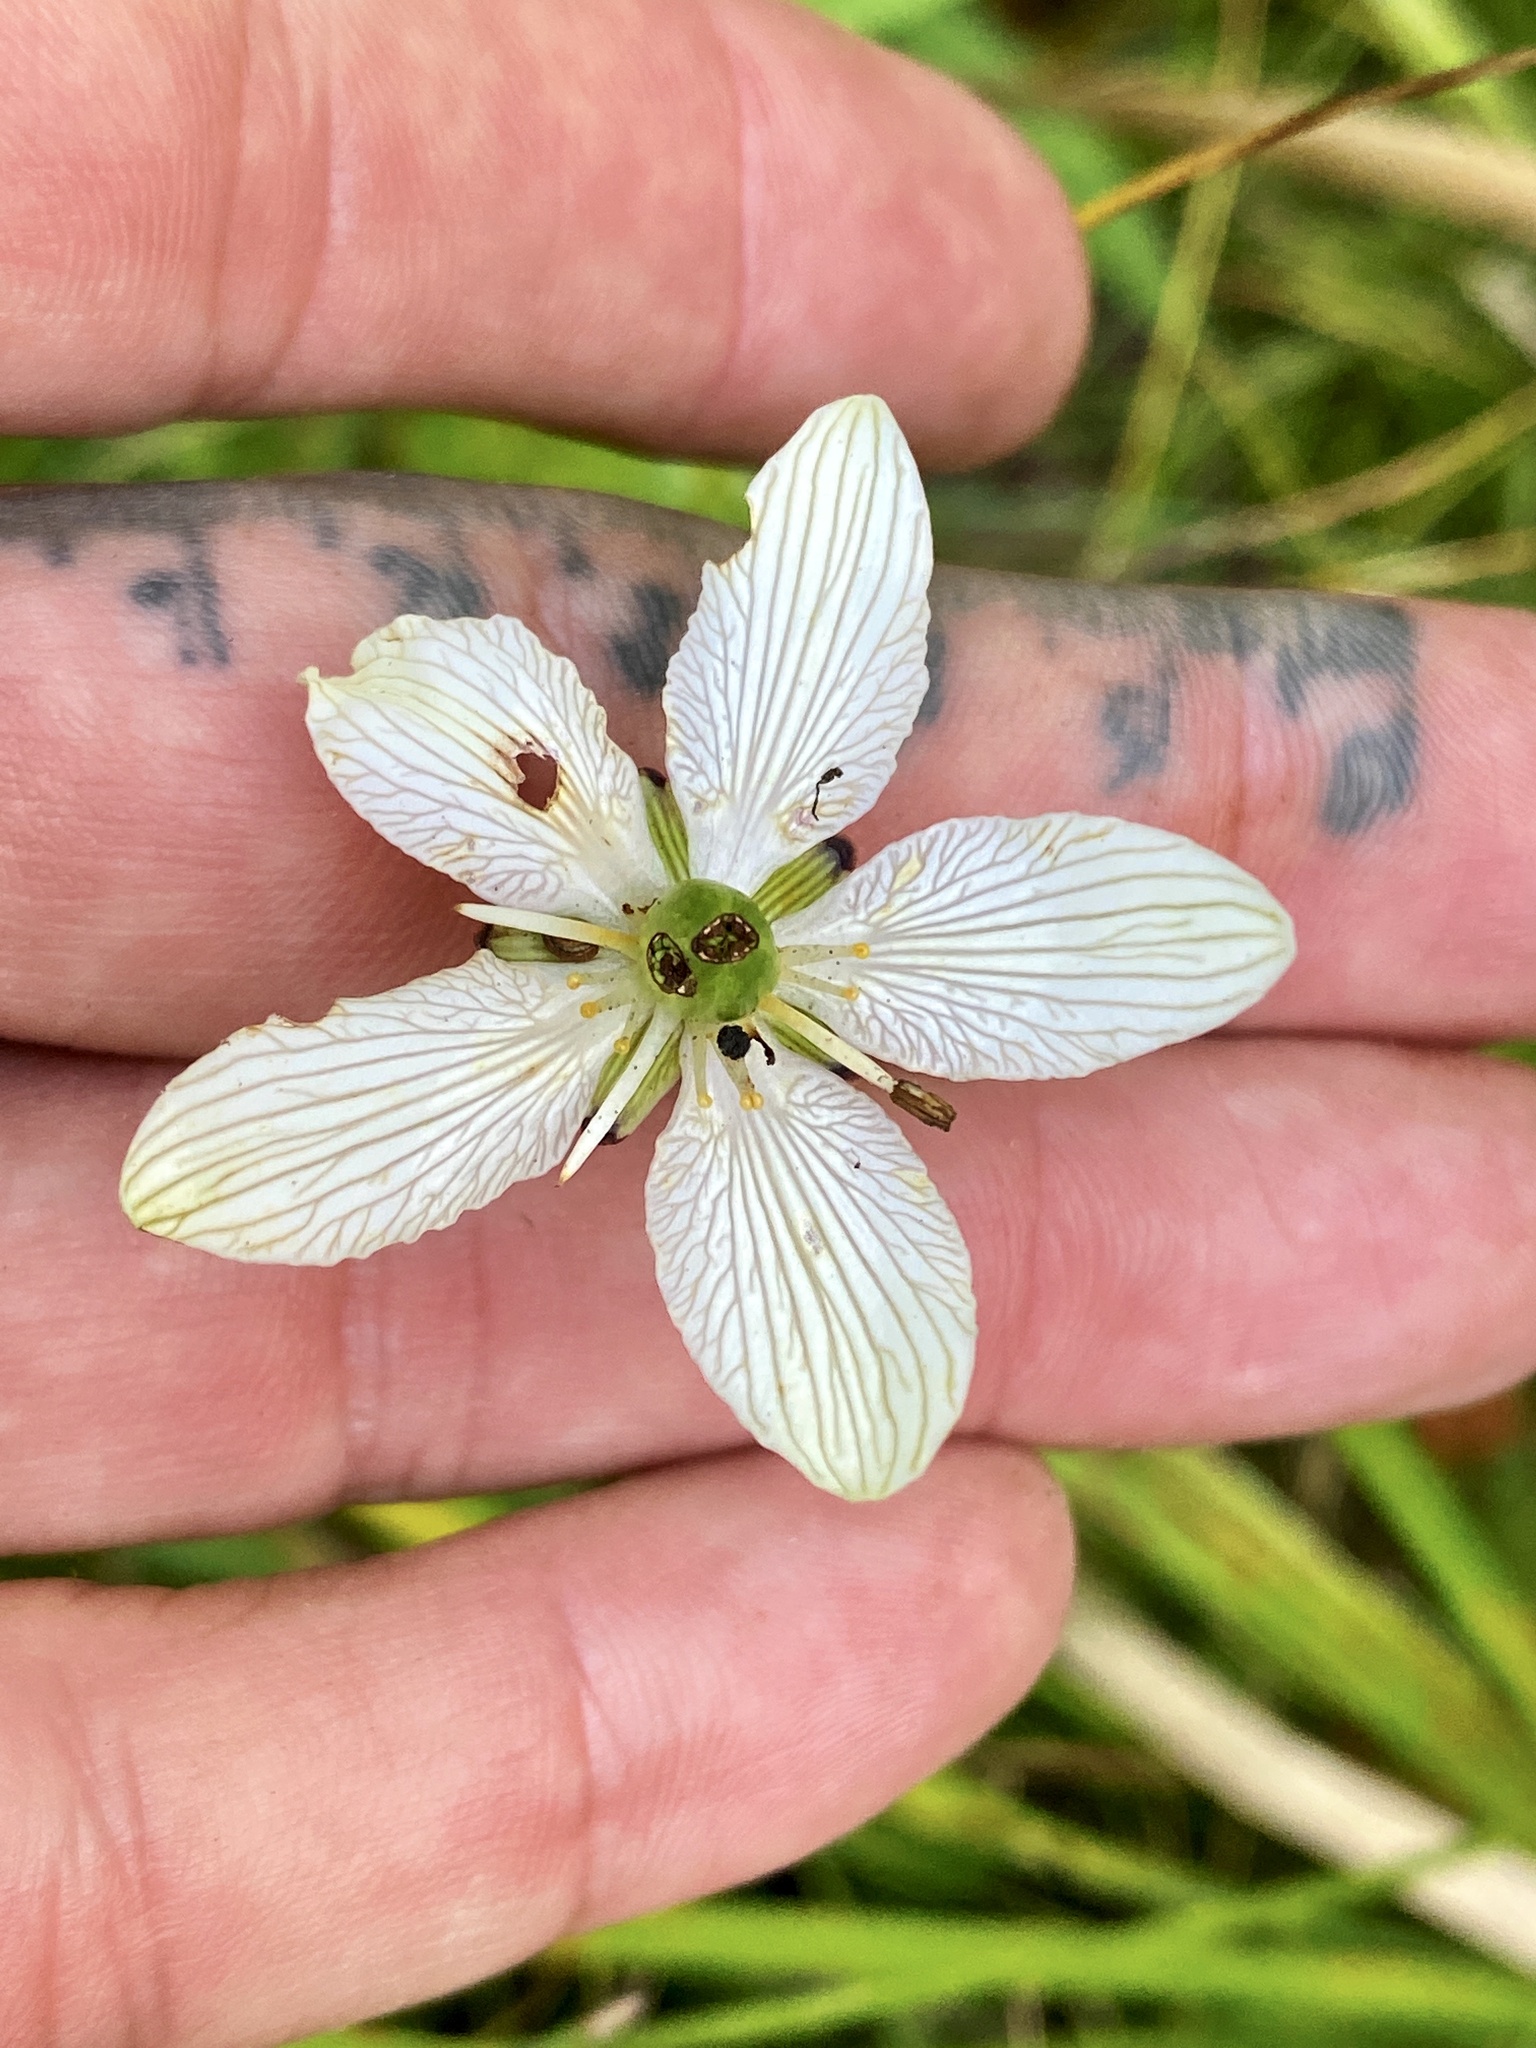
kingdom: Plantae
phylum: Tracheophyta
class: Magnoliopsida
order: Celastrales
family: Parnassiaceae
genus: Parnassia
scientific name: Parnassia glauca
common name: American grass-of-parnassus
